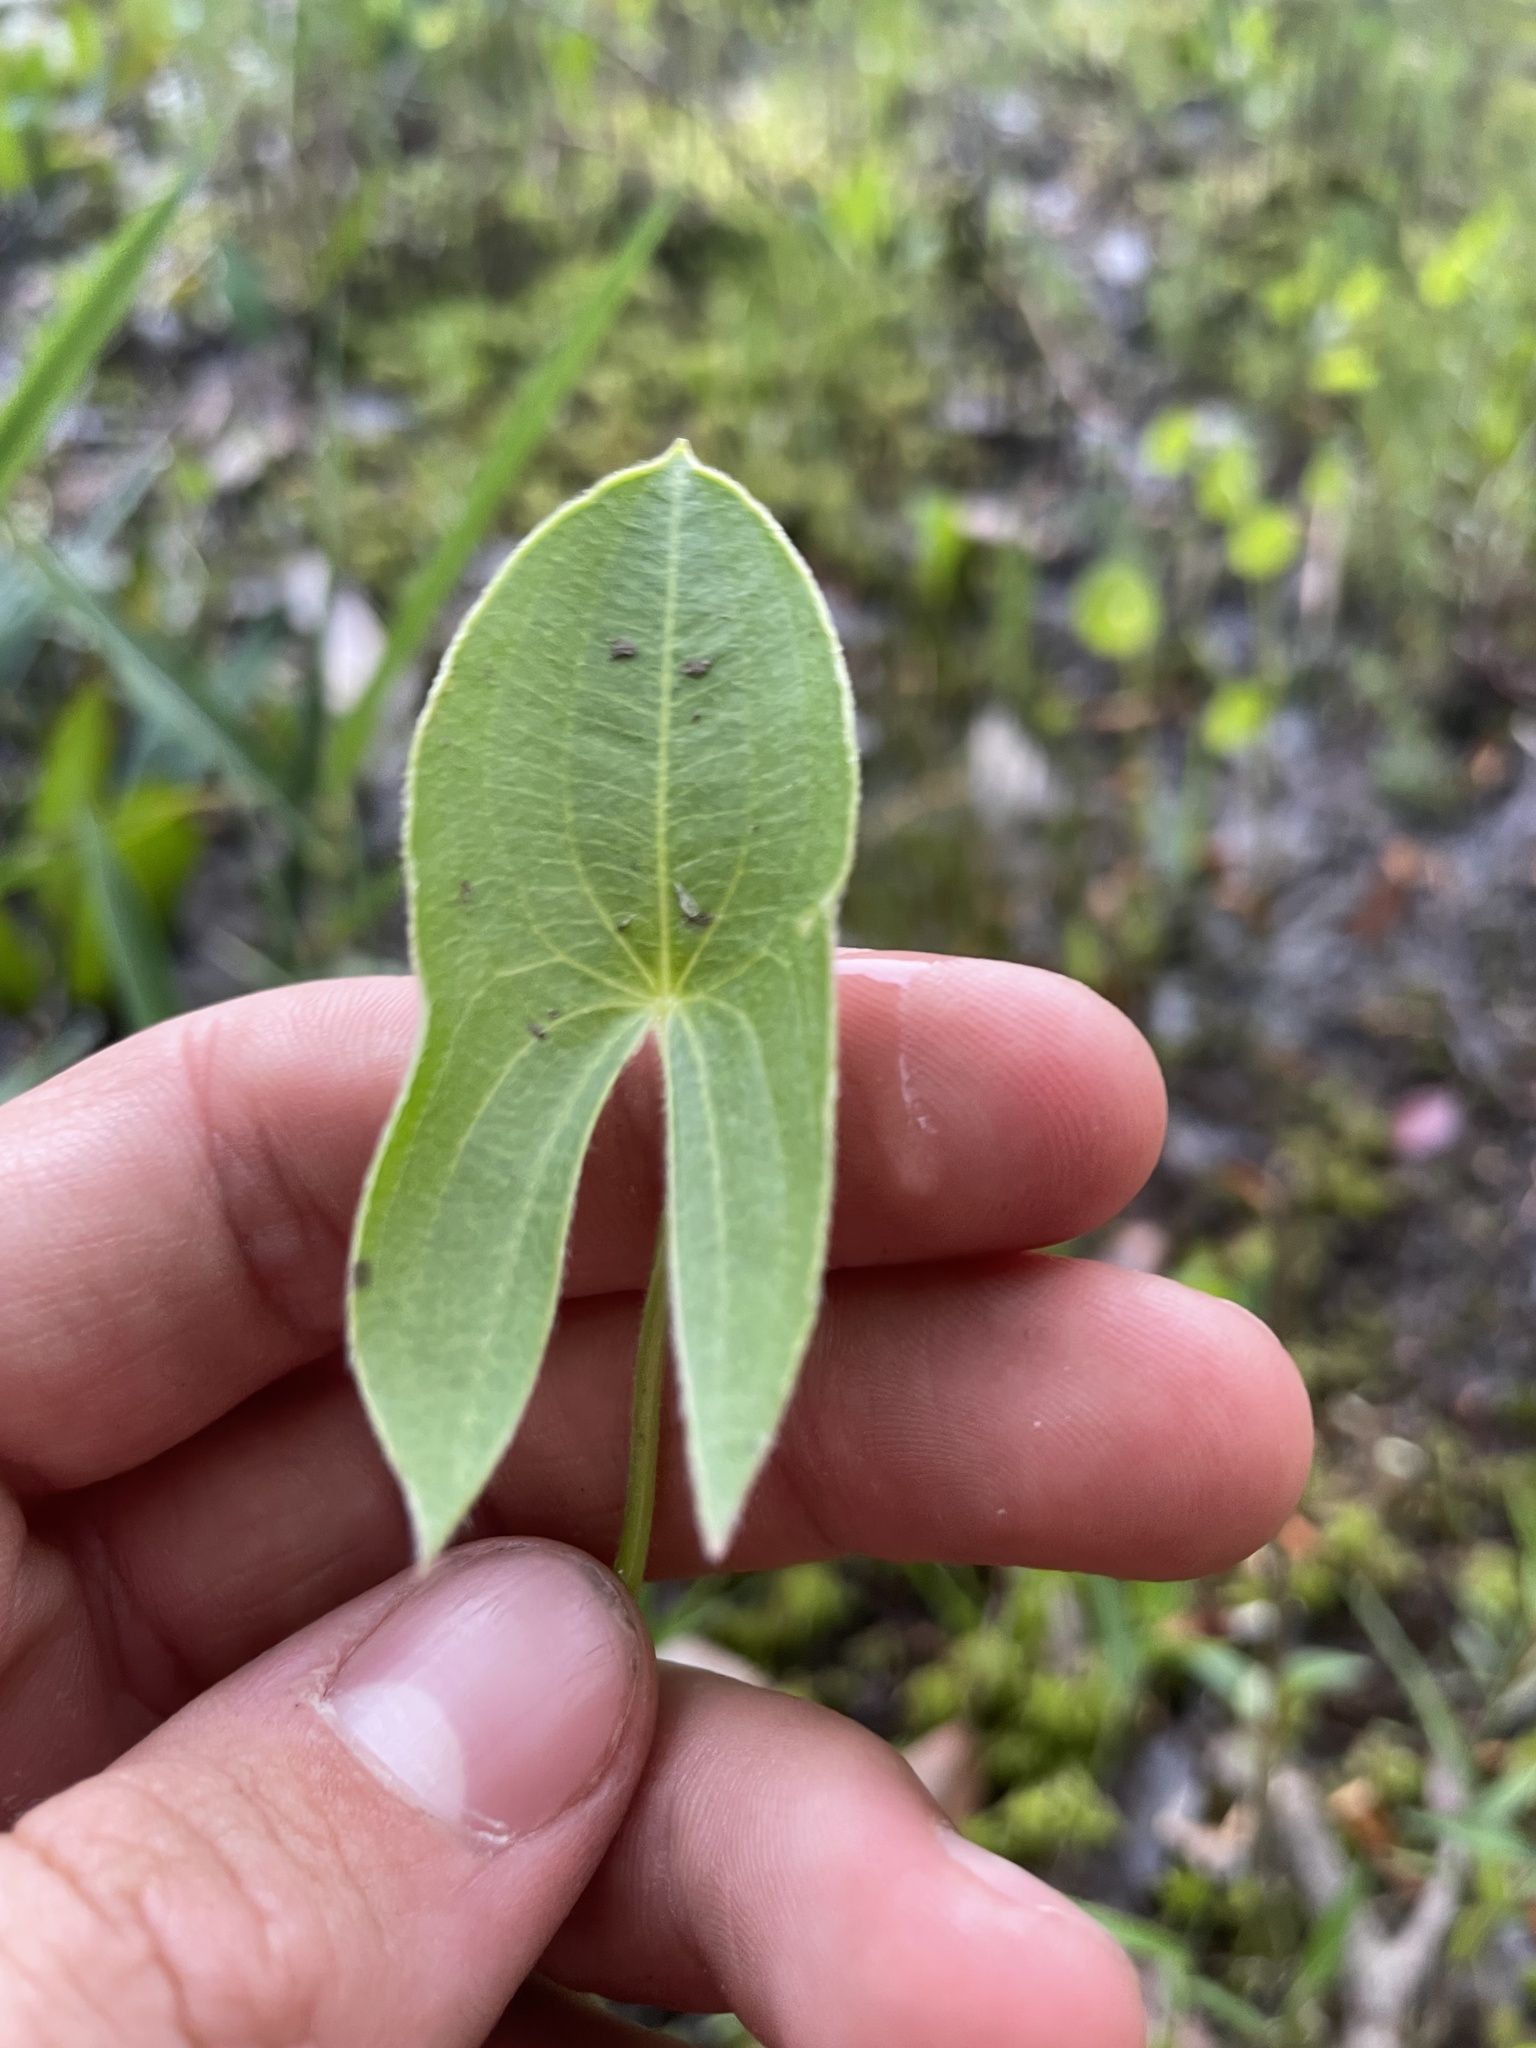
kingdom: Plantae
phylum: Tracheophyta
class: Liliopsida
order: Alismatales
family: Alismataceae
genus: Sagittaria
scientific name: Sagittaria latifolia
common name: Duck-potato
